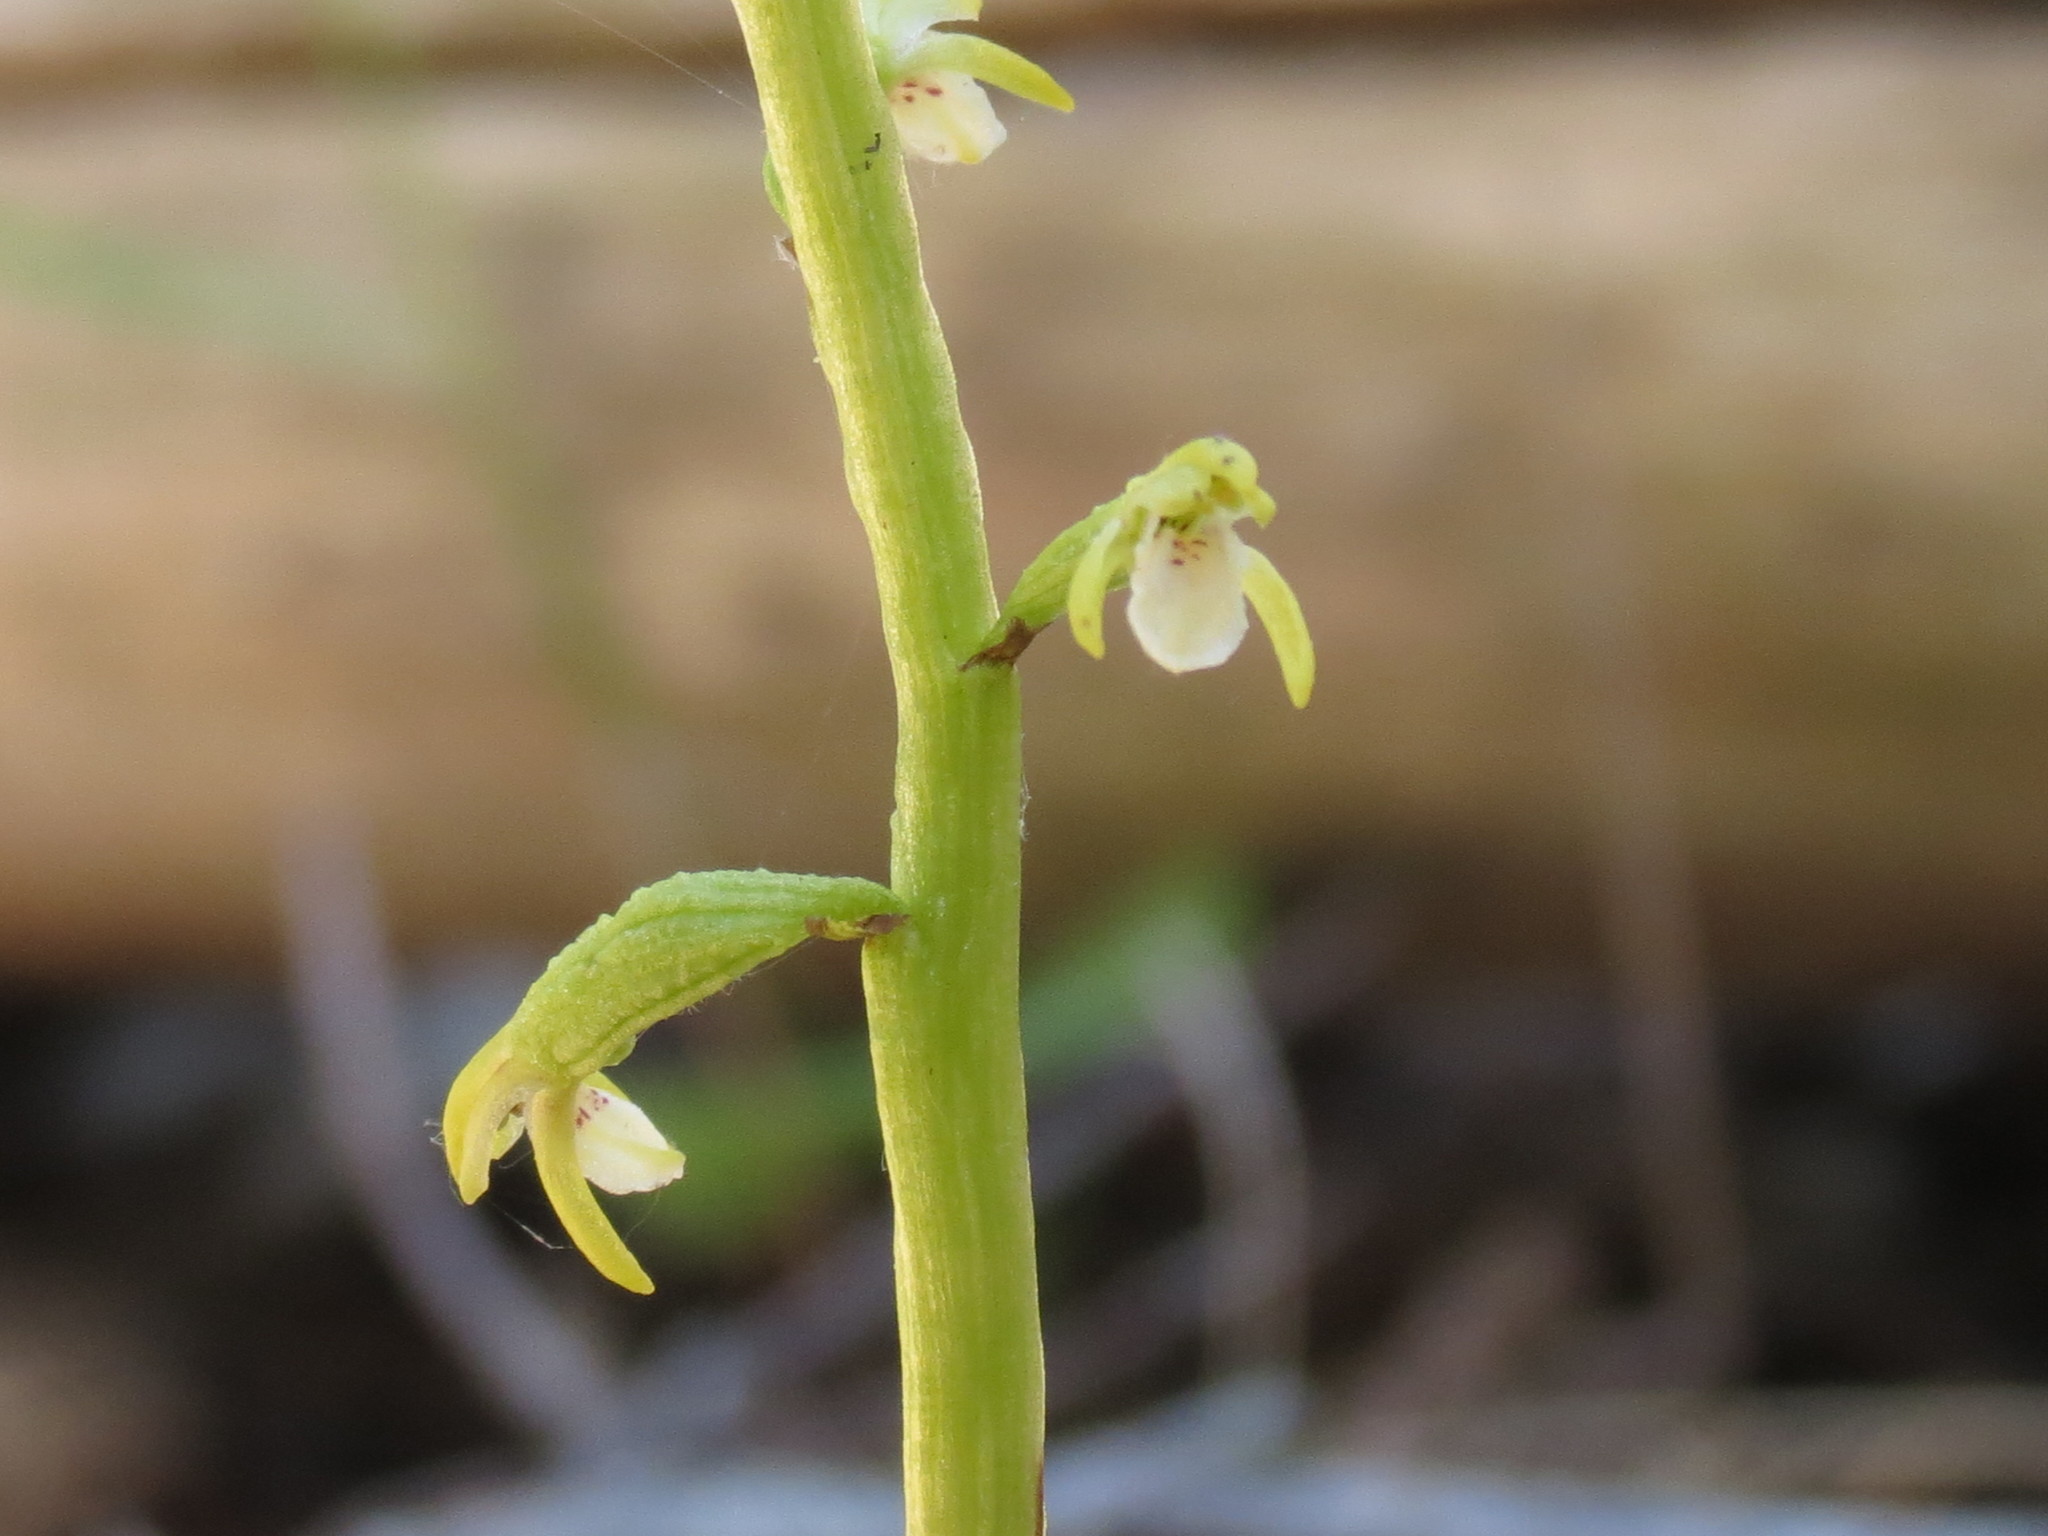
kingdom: Plantae
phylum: Tracheophyta
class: Liliopsida
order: Asparagales
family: Orchidaceae
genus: Corallorhiza
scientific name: Corallorhiza trifida
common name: Yellow coralroot
